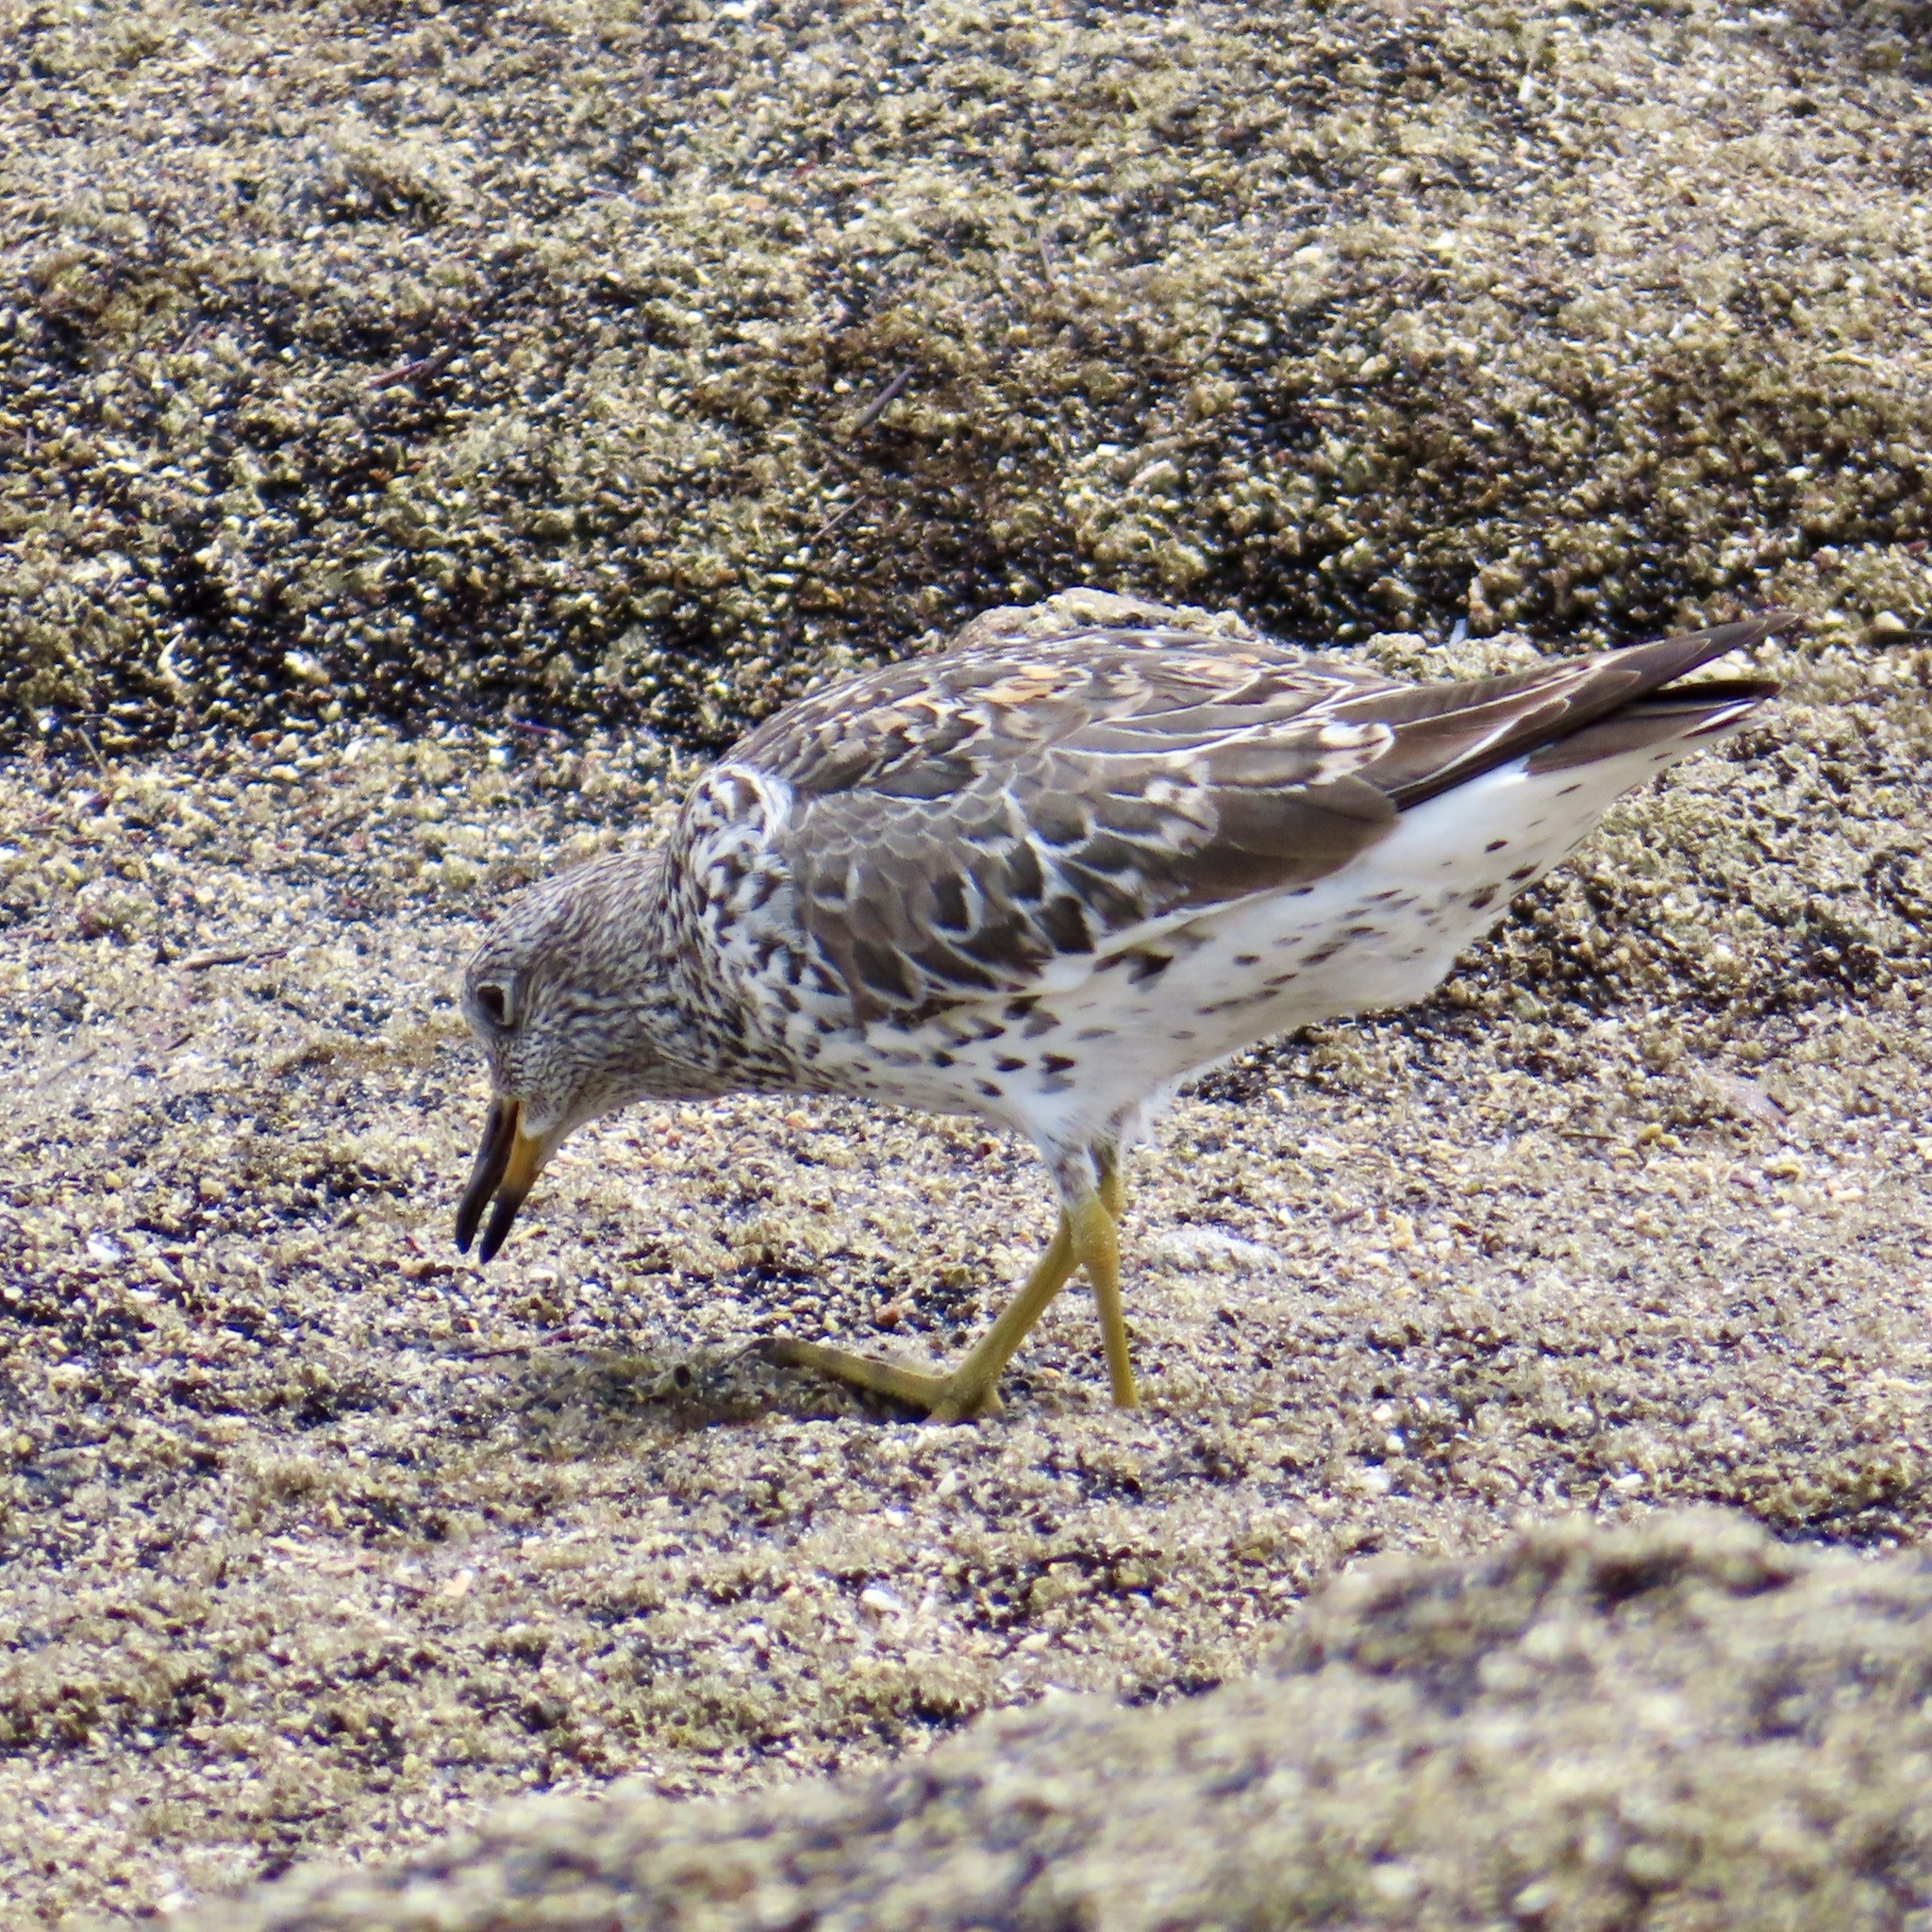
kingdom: Animalia
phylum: Chordata
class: Aves
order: Charadriiformes
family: Scolopacidae
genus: Calidris
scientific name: Calidris virgata
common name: Surfbird
